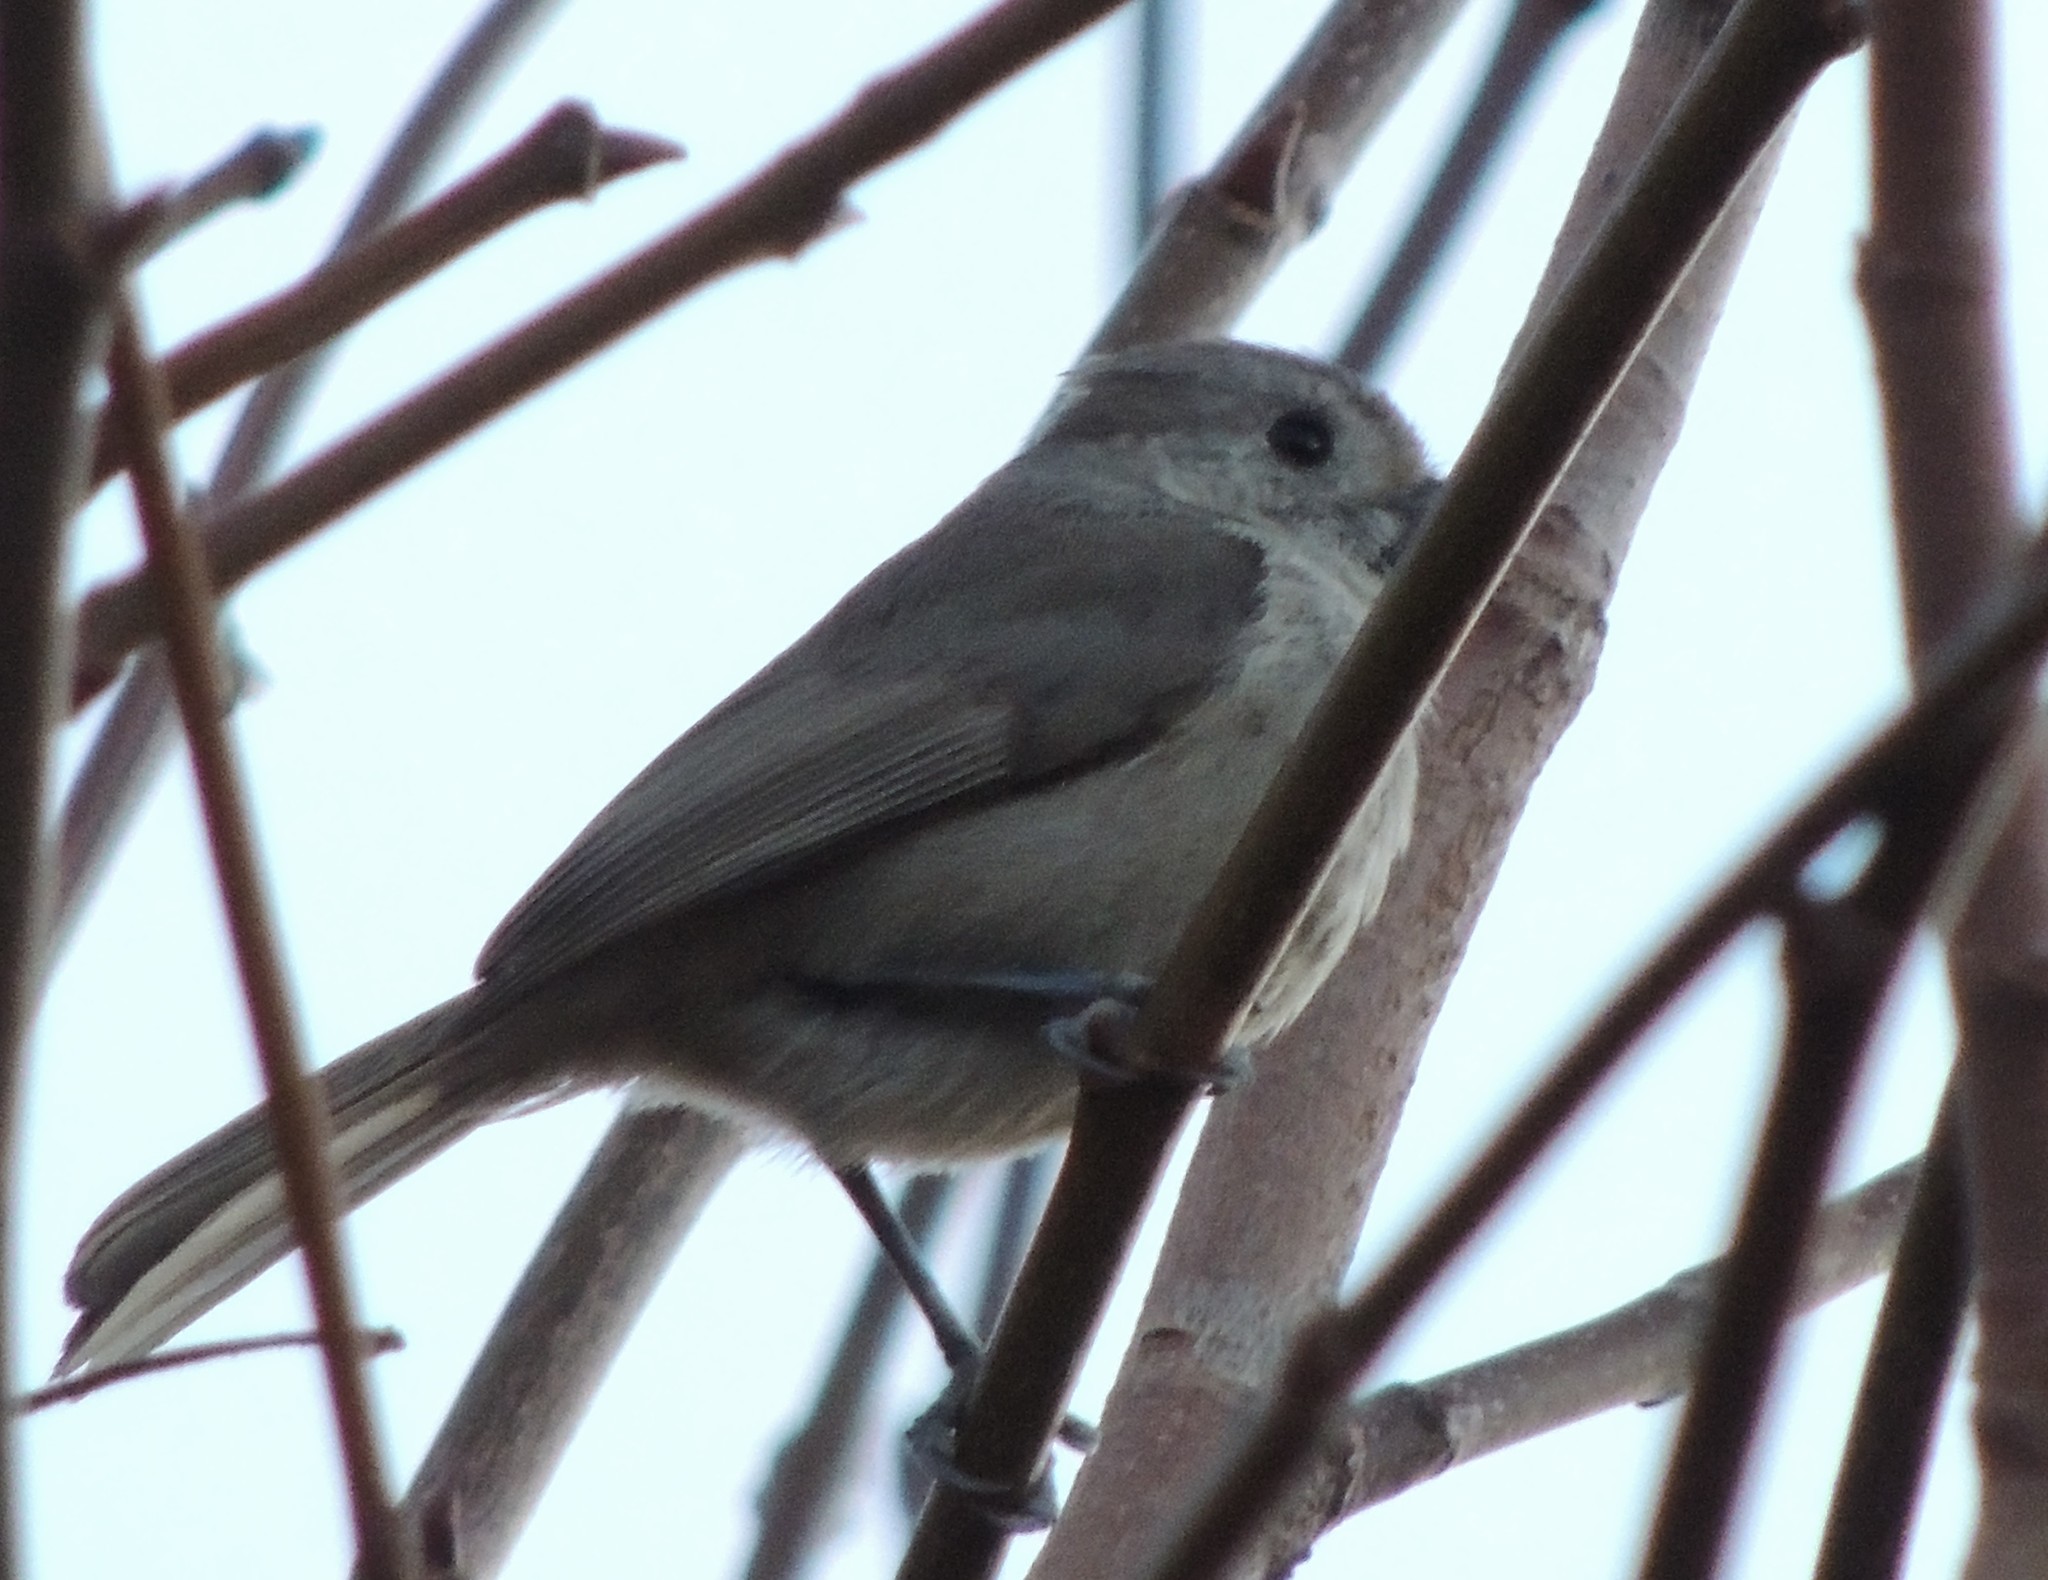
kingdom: Animalia
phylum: Chordata
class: Aves
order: Passeriformes
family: Paridae
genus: Baeolophus
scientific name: Baeolophus inornatus
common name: Oak titmouse
